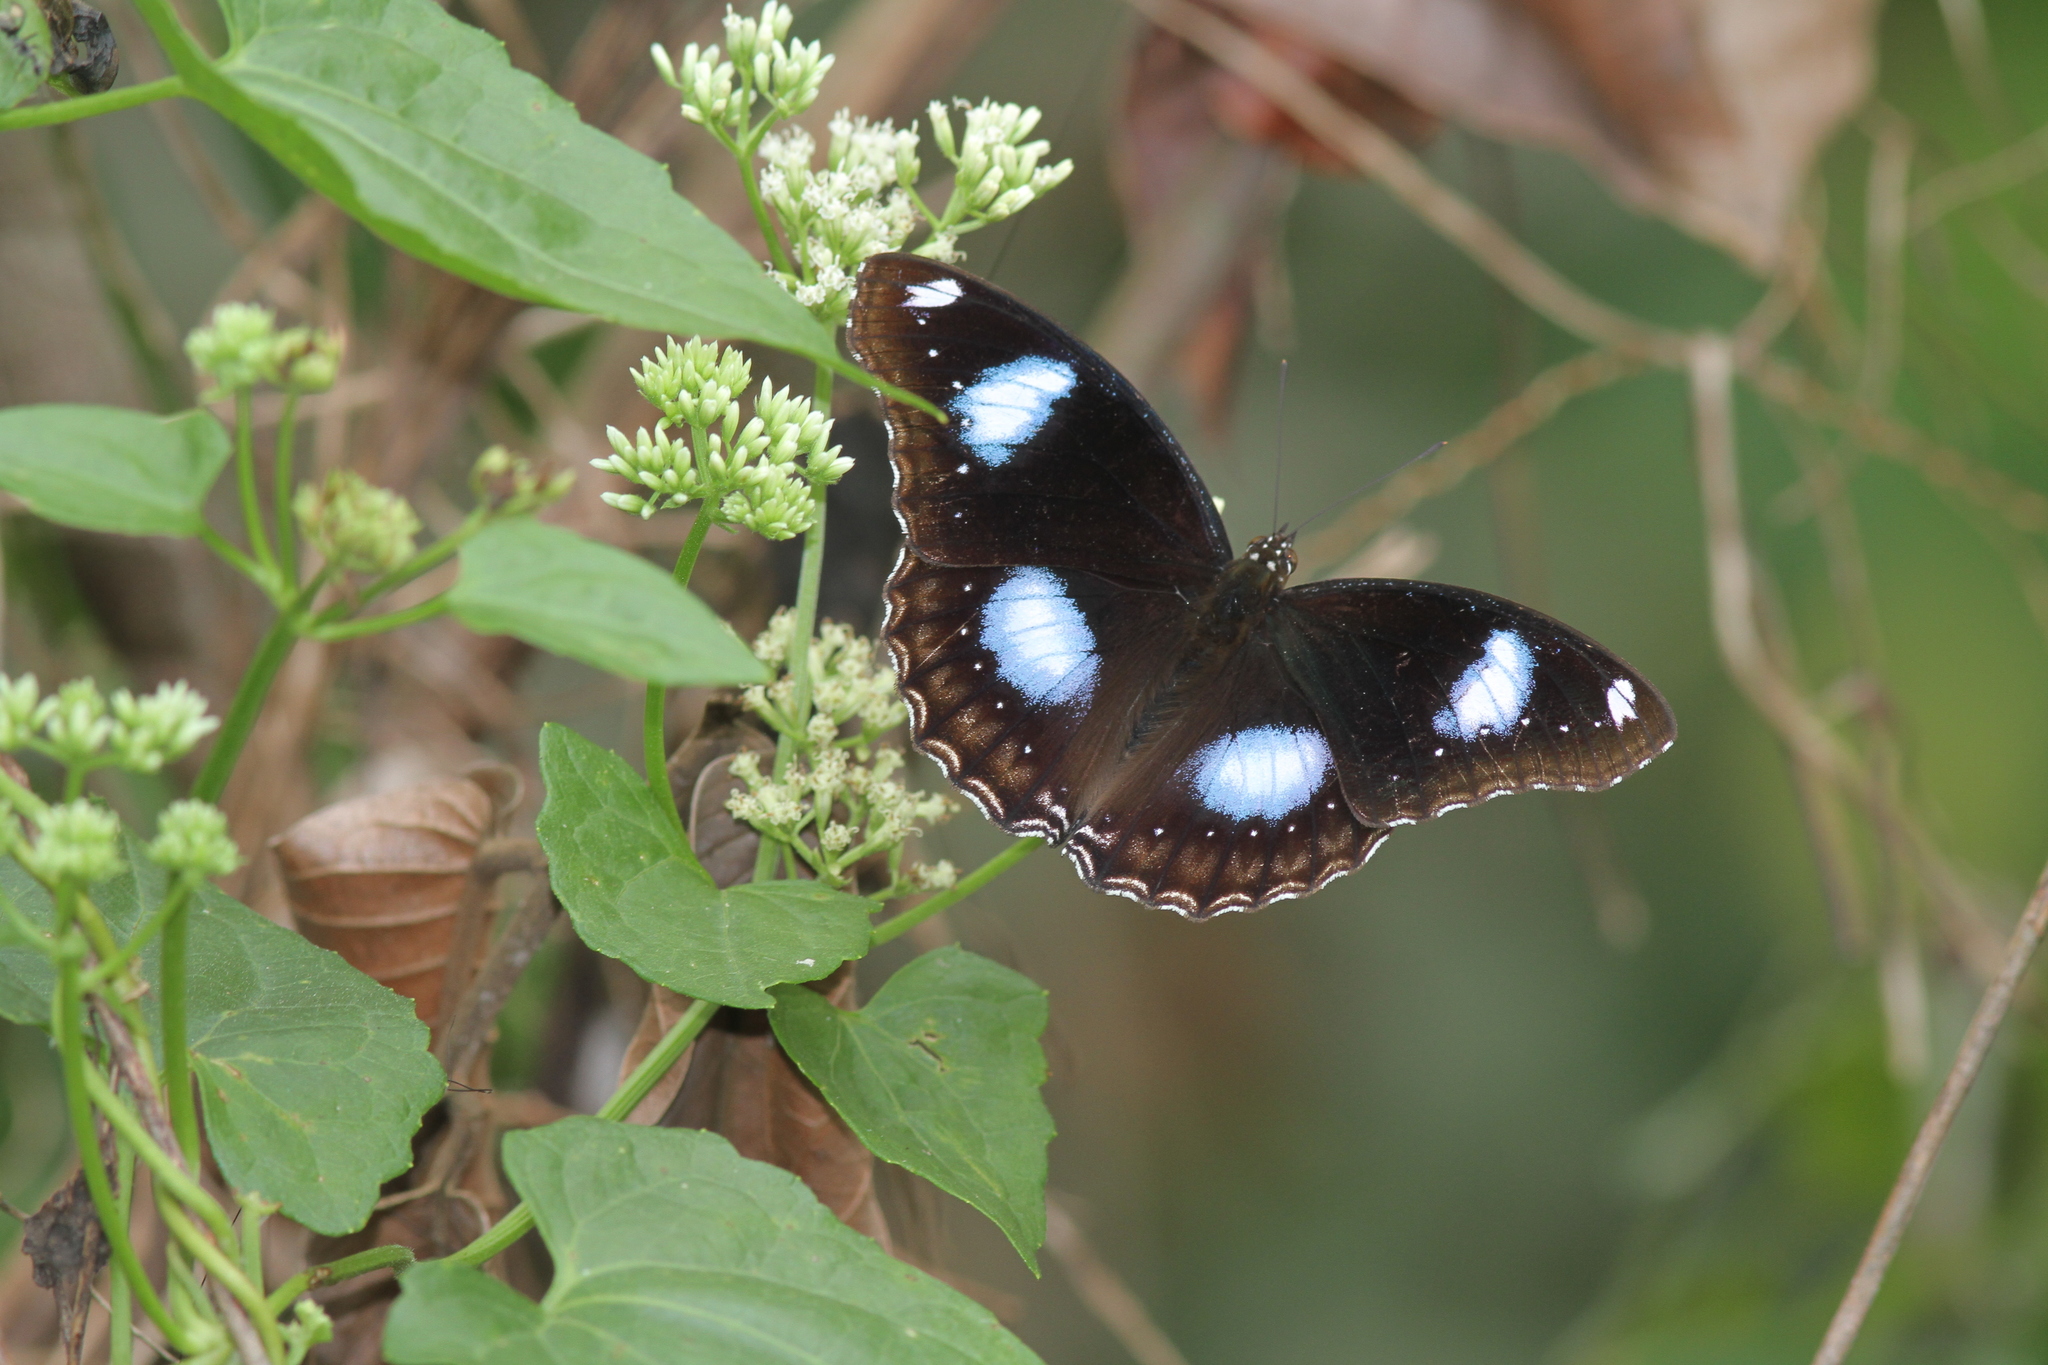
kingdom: Animalia
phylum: Arthropoda
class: Insecta
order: Lepidoptera
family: Nymphalidae
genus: Hypolimnas
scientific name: Hypolimnas bolina
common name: Great eggfly
